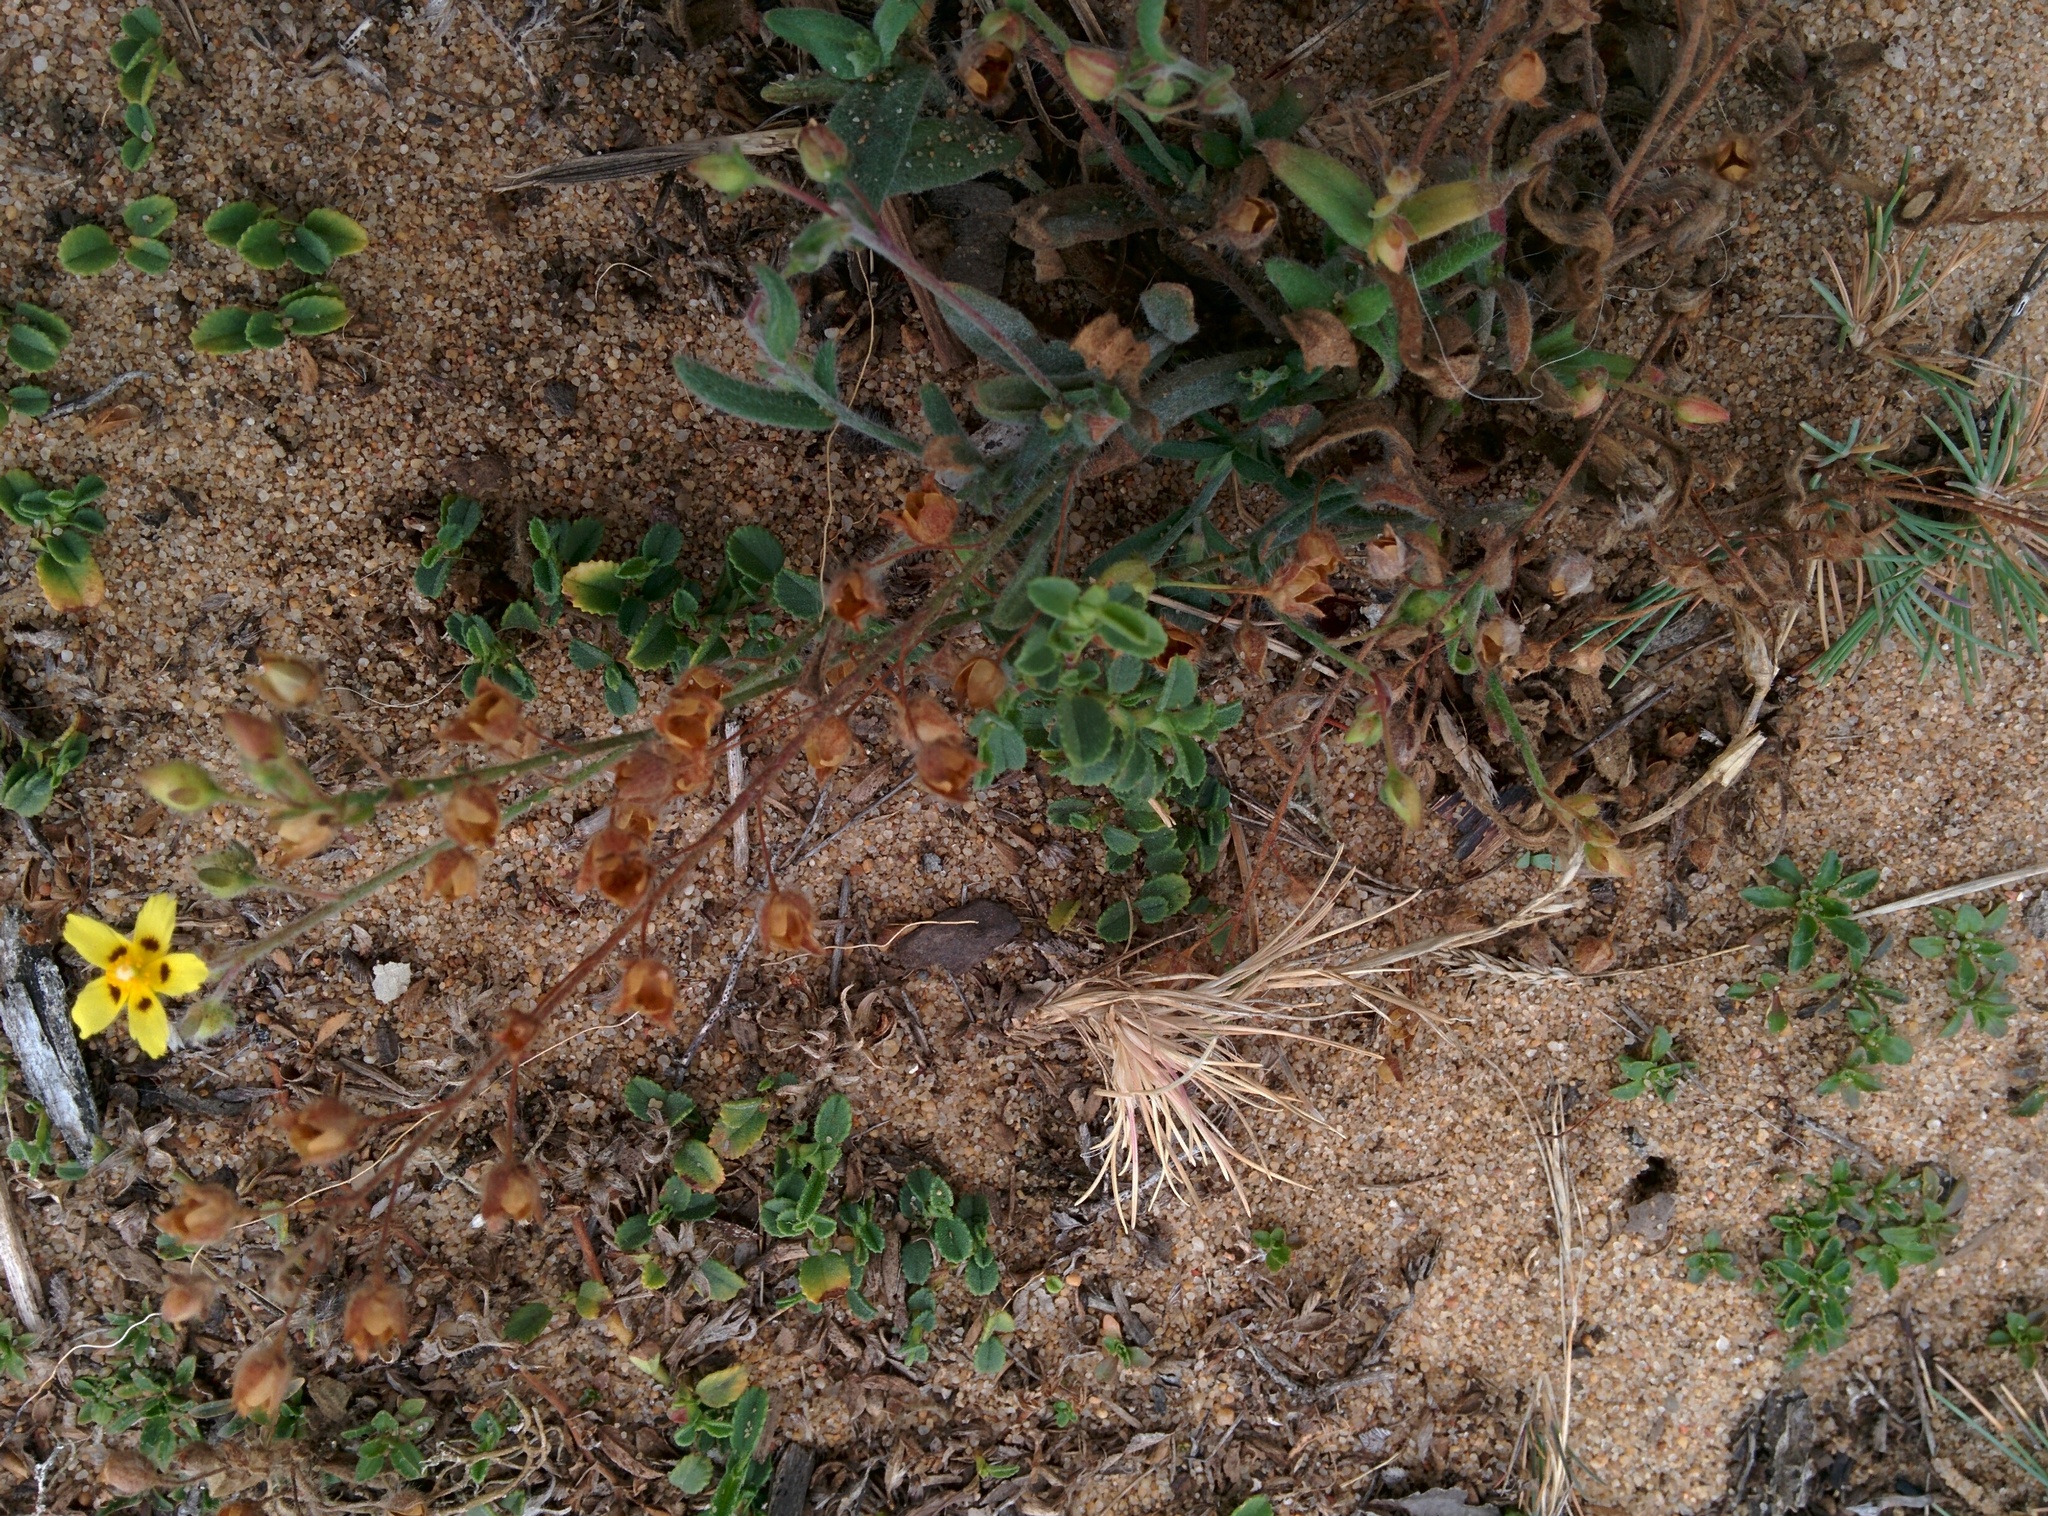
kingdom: Plantae
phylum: Tracheophyta
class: Magnoliopsida
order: Malvales
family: Cistaceae
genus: Tuberaria
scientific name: Tuberaria guttata
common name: Spotted rock-rose
